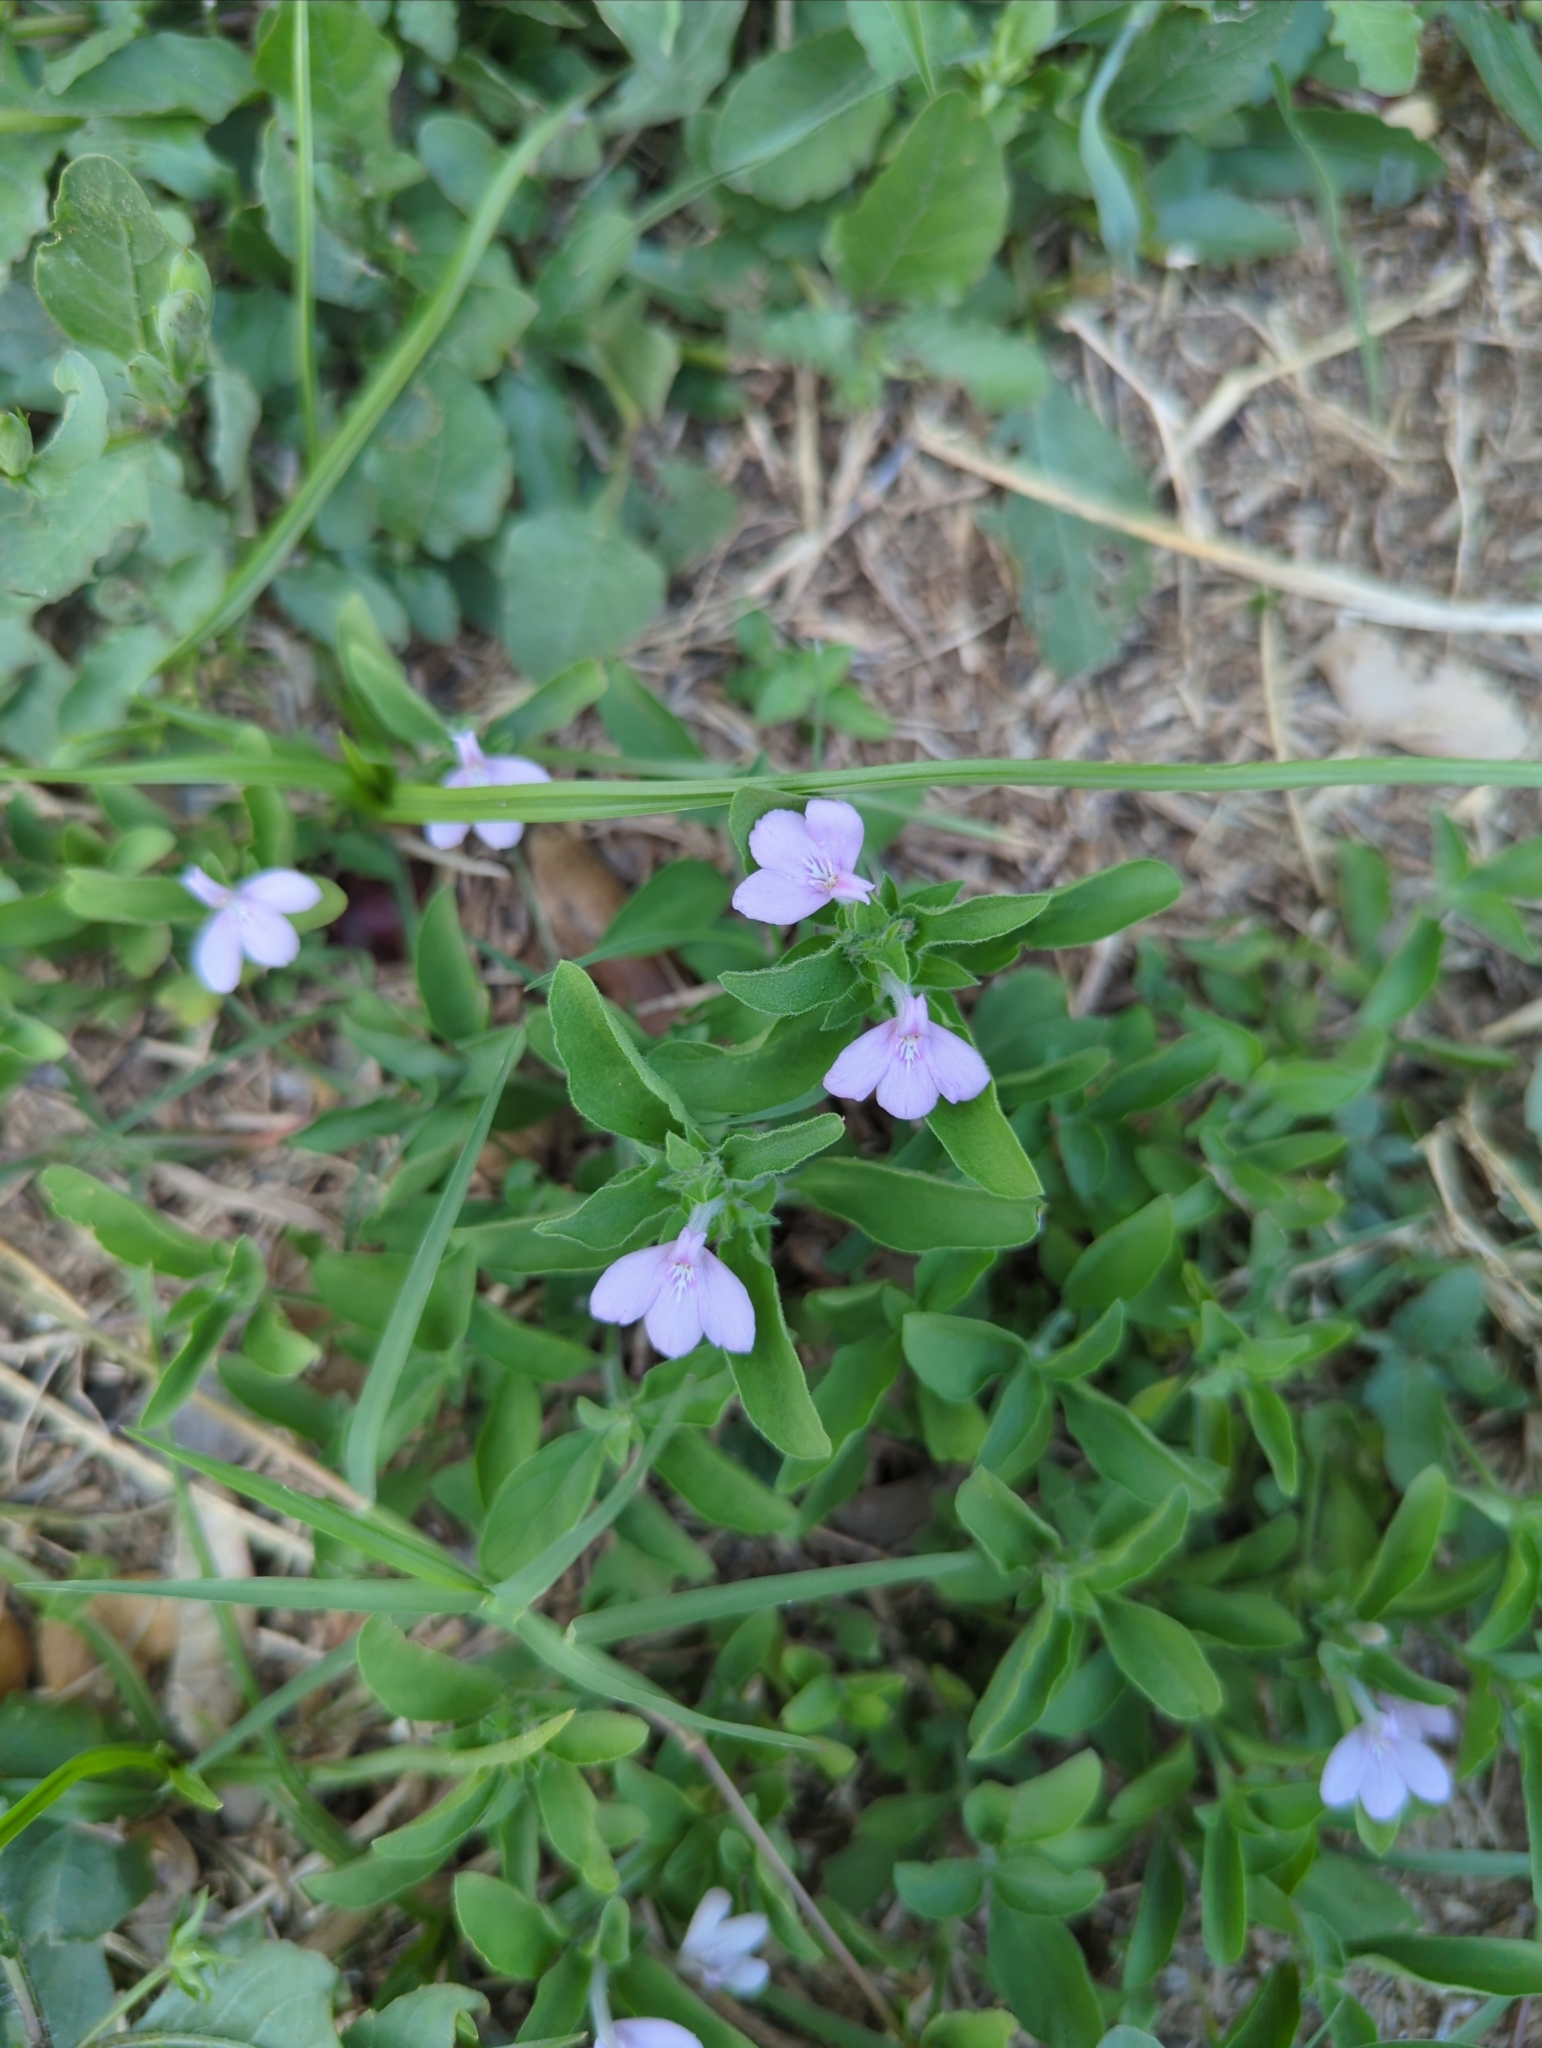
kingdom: Plantae
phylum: Tracheophyta
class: Magnoliopsida
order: Lamiales
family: Acanthaceae
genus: Justicia
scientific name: Justicia pilosella
